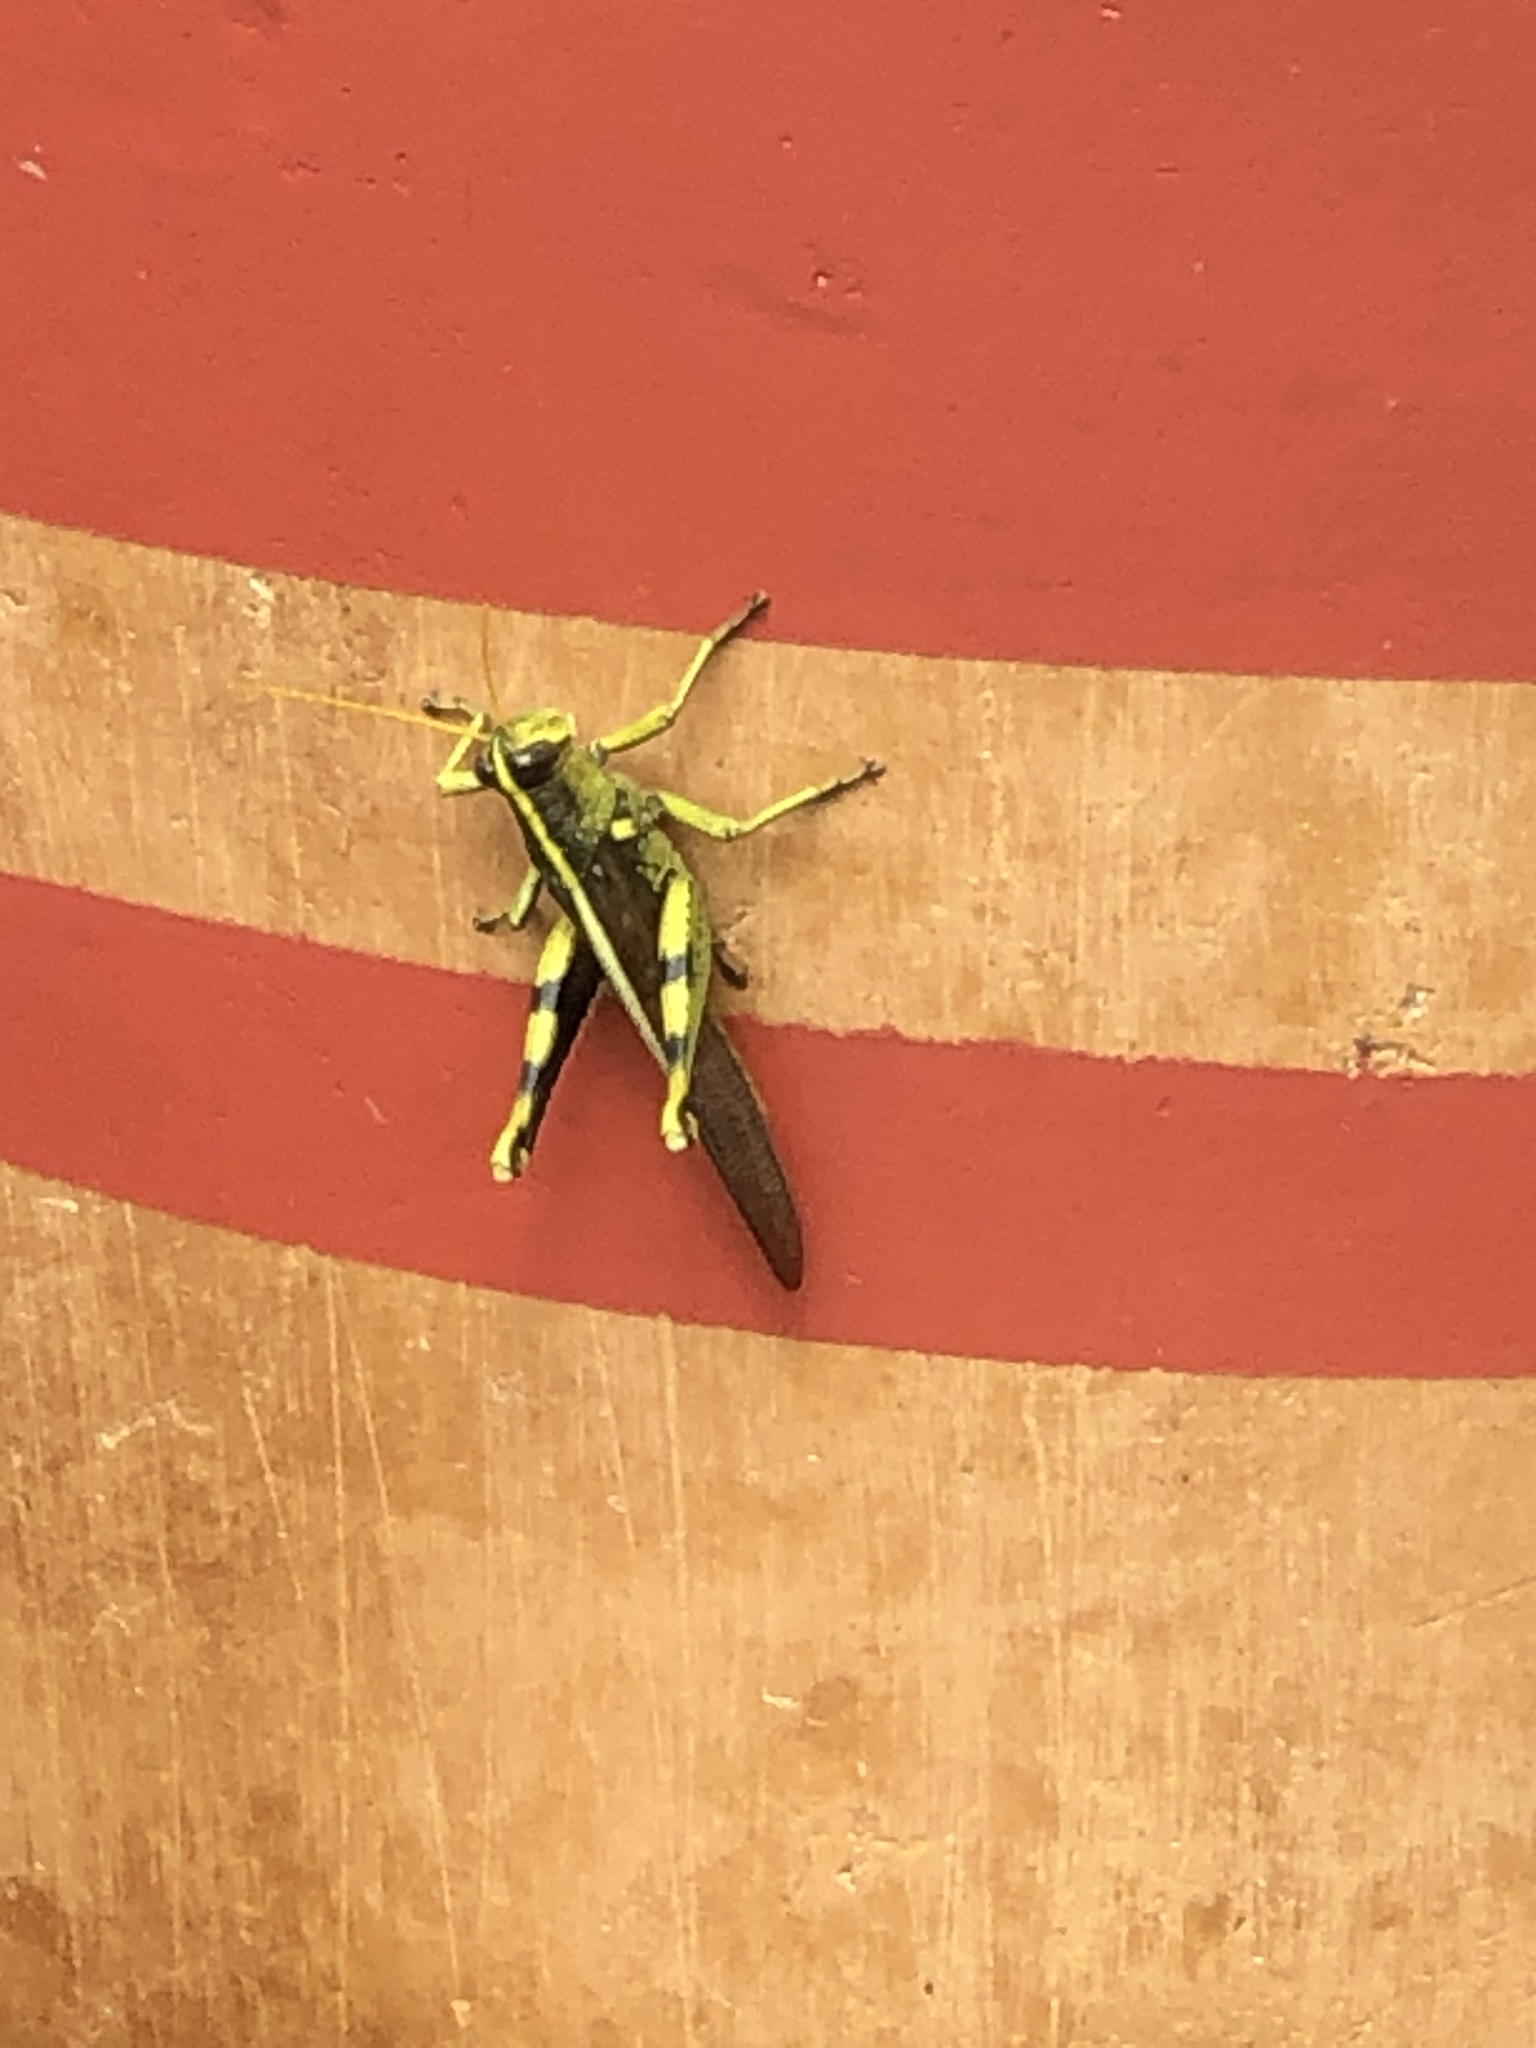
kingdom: Animalia
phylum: Arthropoda
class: Insecta
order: Orthoptera
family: Acrididae
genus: Schistocerca
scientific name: Schistocerca obscura
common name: Obscure bird grasshopper
